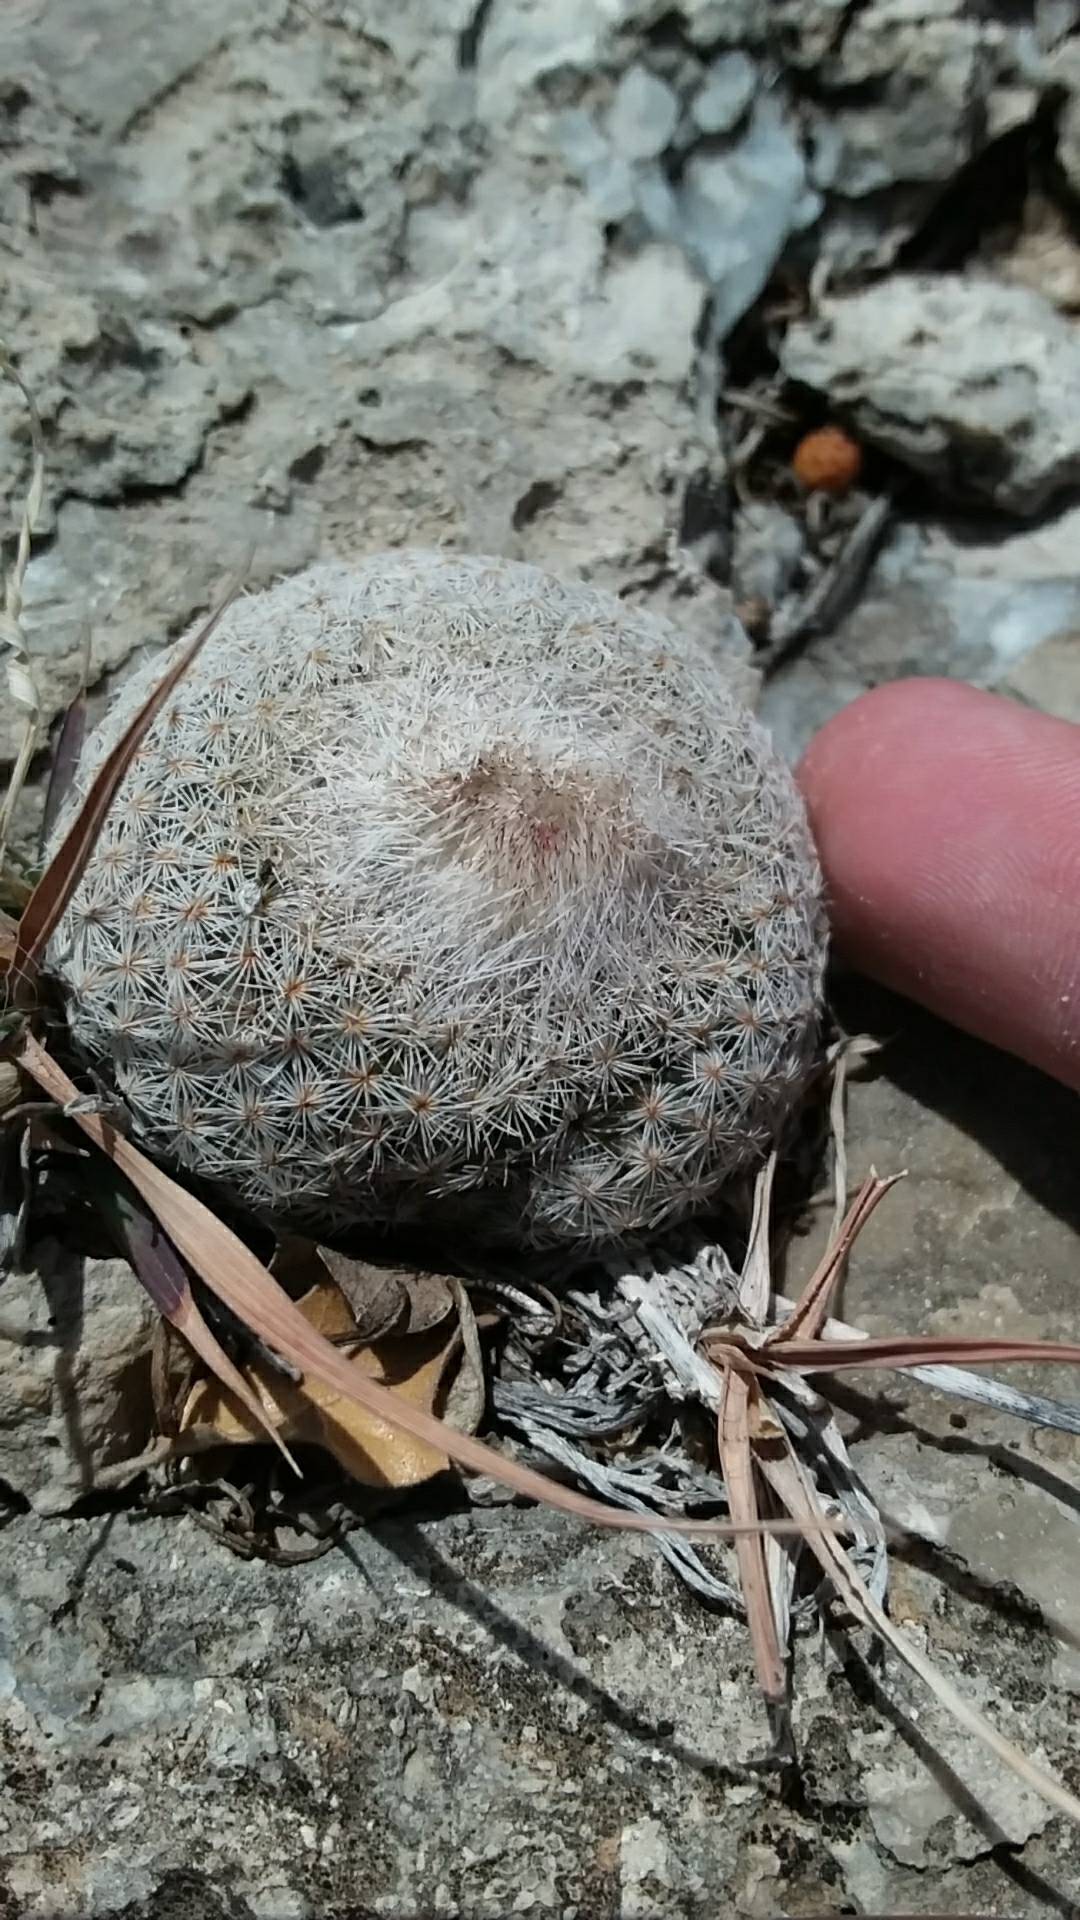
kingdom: Plantae
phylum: Tracheophyta
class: Magnoliopsida
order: Caryophyllales
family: Cactaceae
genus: Epithelantha
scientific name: Epithelantha micromeris
